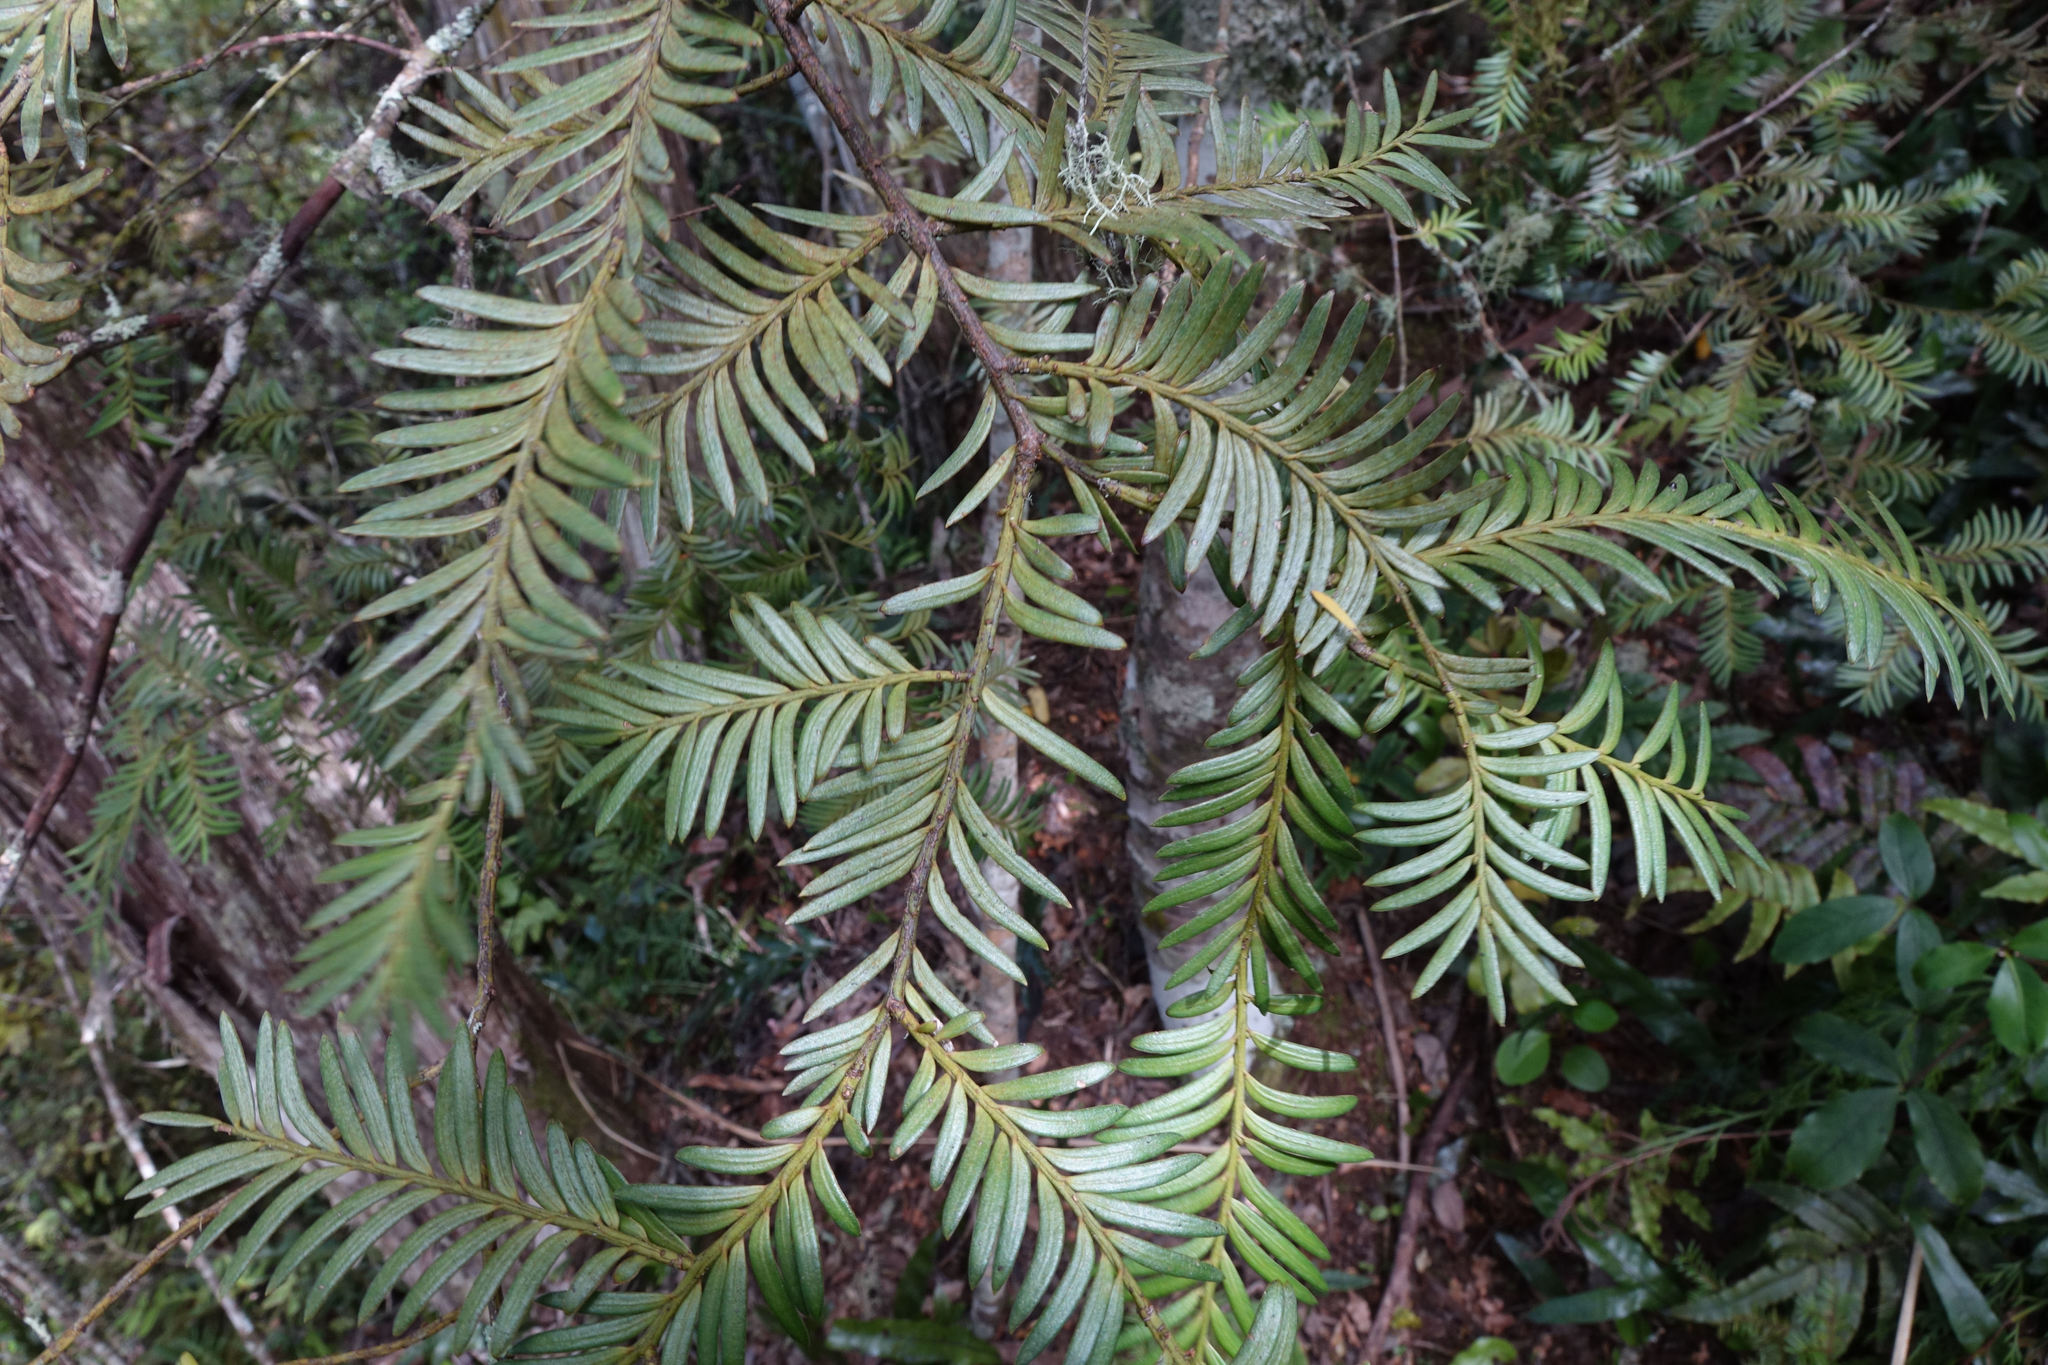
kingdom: Plantae
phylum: Tracheophyta
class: Pinopsida
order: Pinales
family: Podocarpaceae
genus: Prumnopitys
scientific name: Prumnopitys ferruginea
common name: Brown pine
